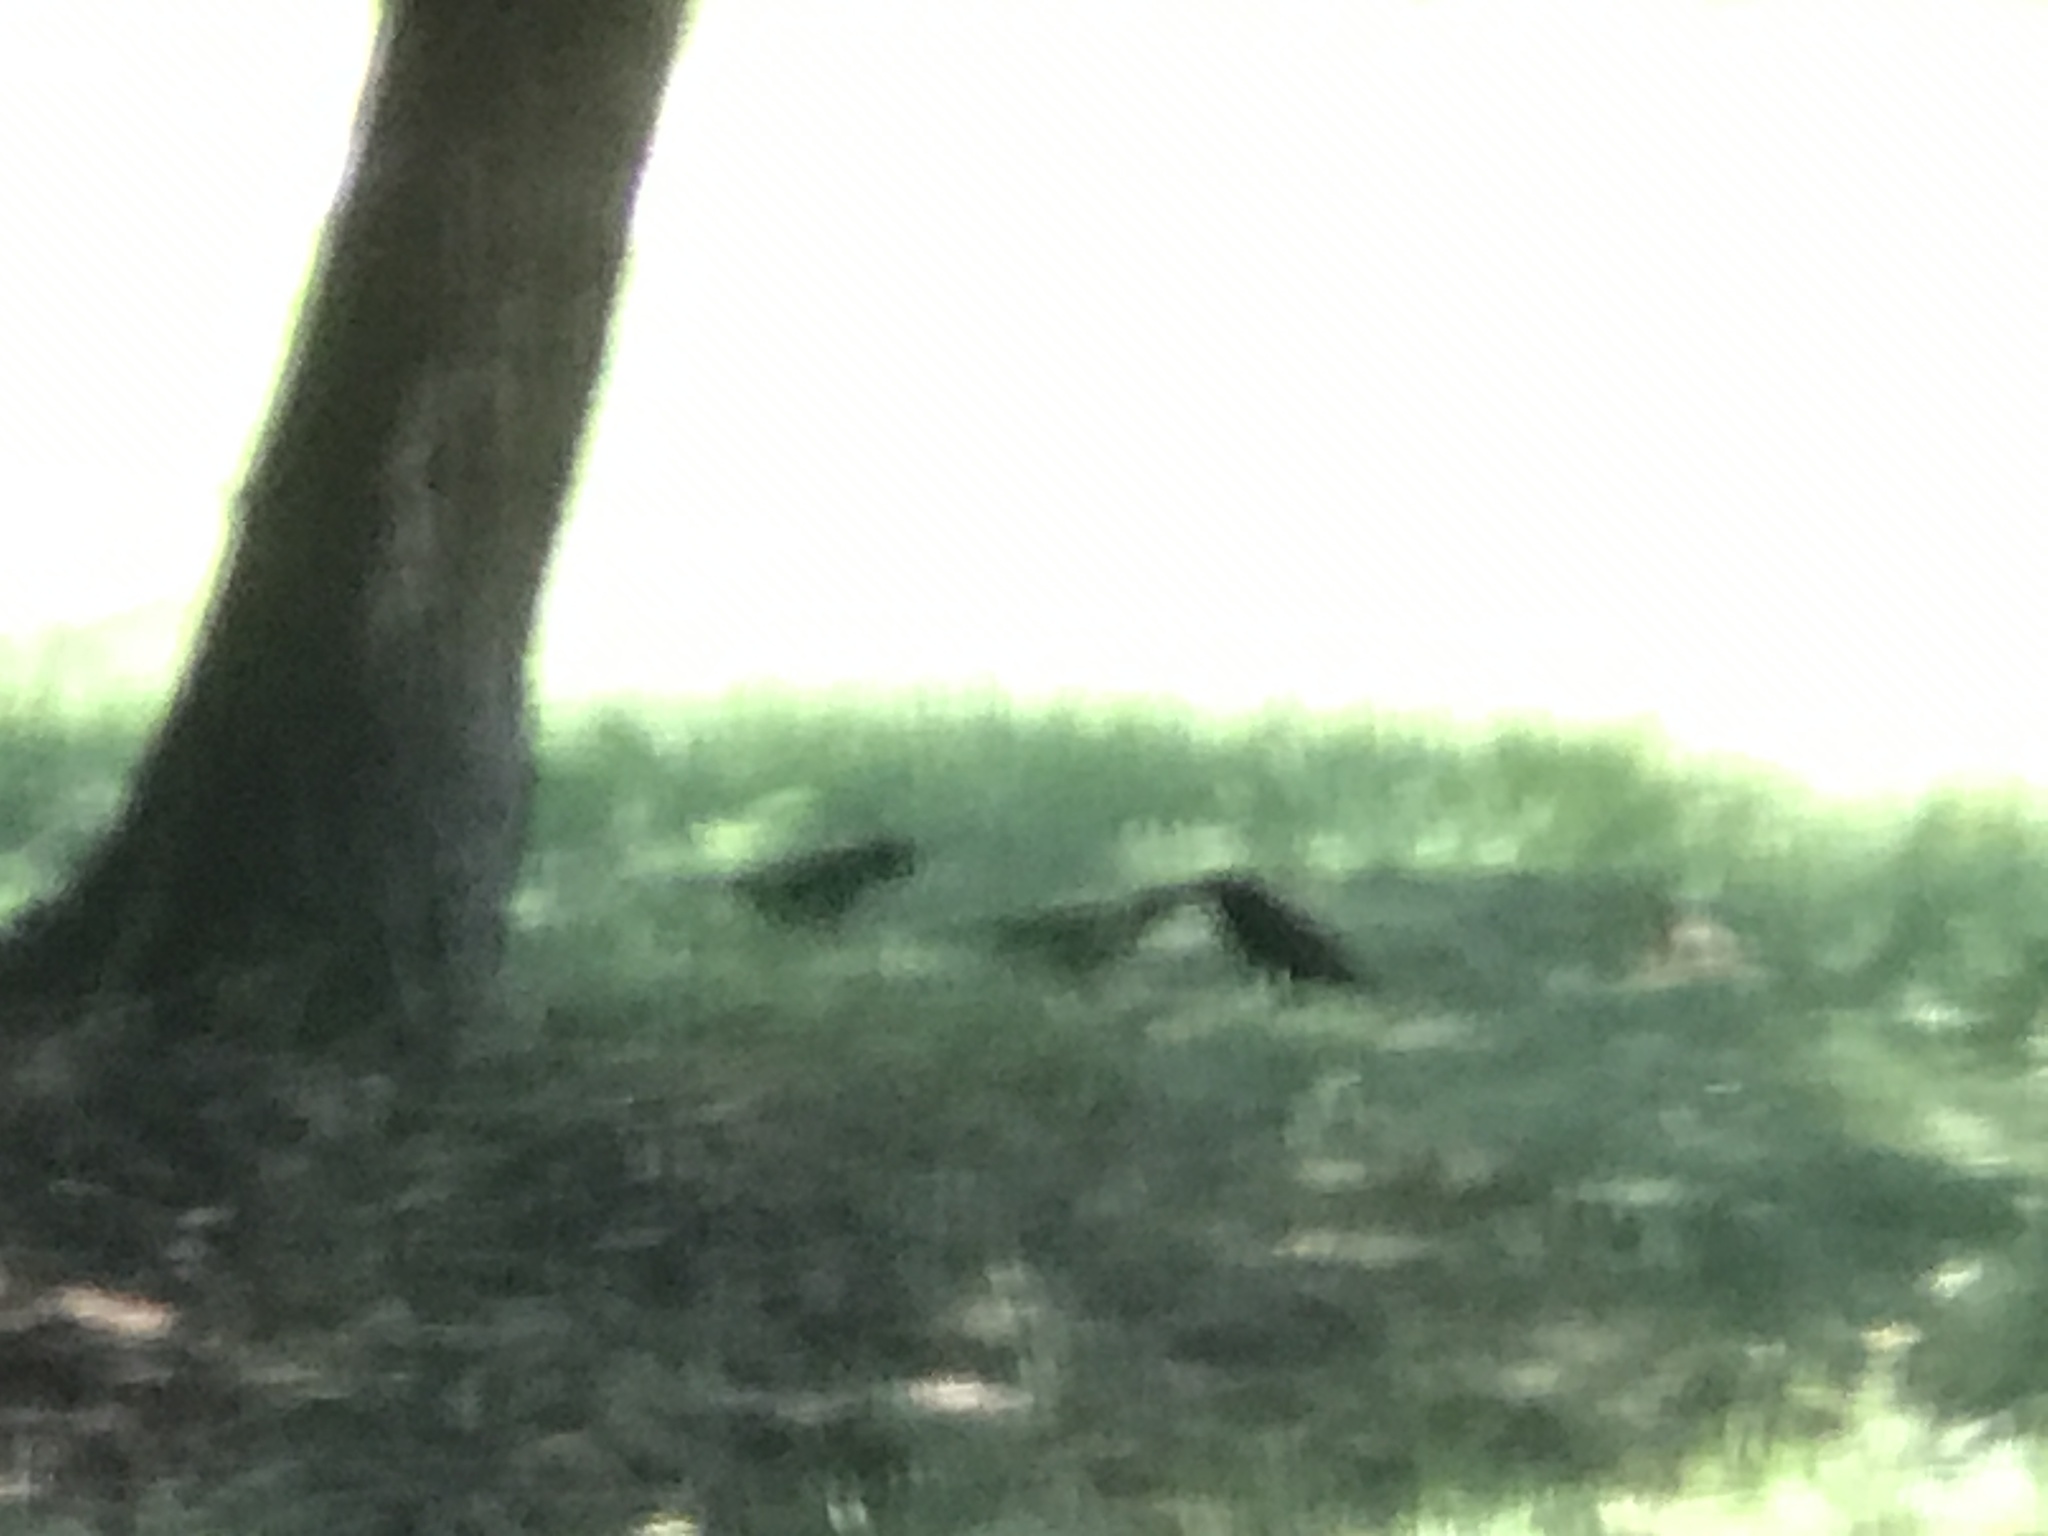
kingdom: Animalia
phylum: Chordata
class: Aves
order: Passeriformes
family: Icteridae
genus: Quiscalus
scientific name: Quiscalus quiscula
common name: Common grackle
